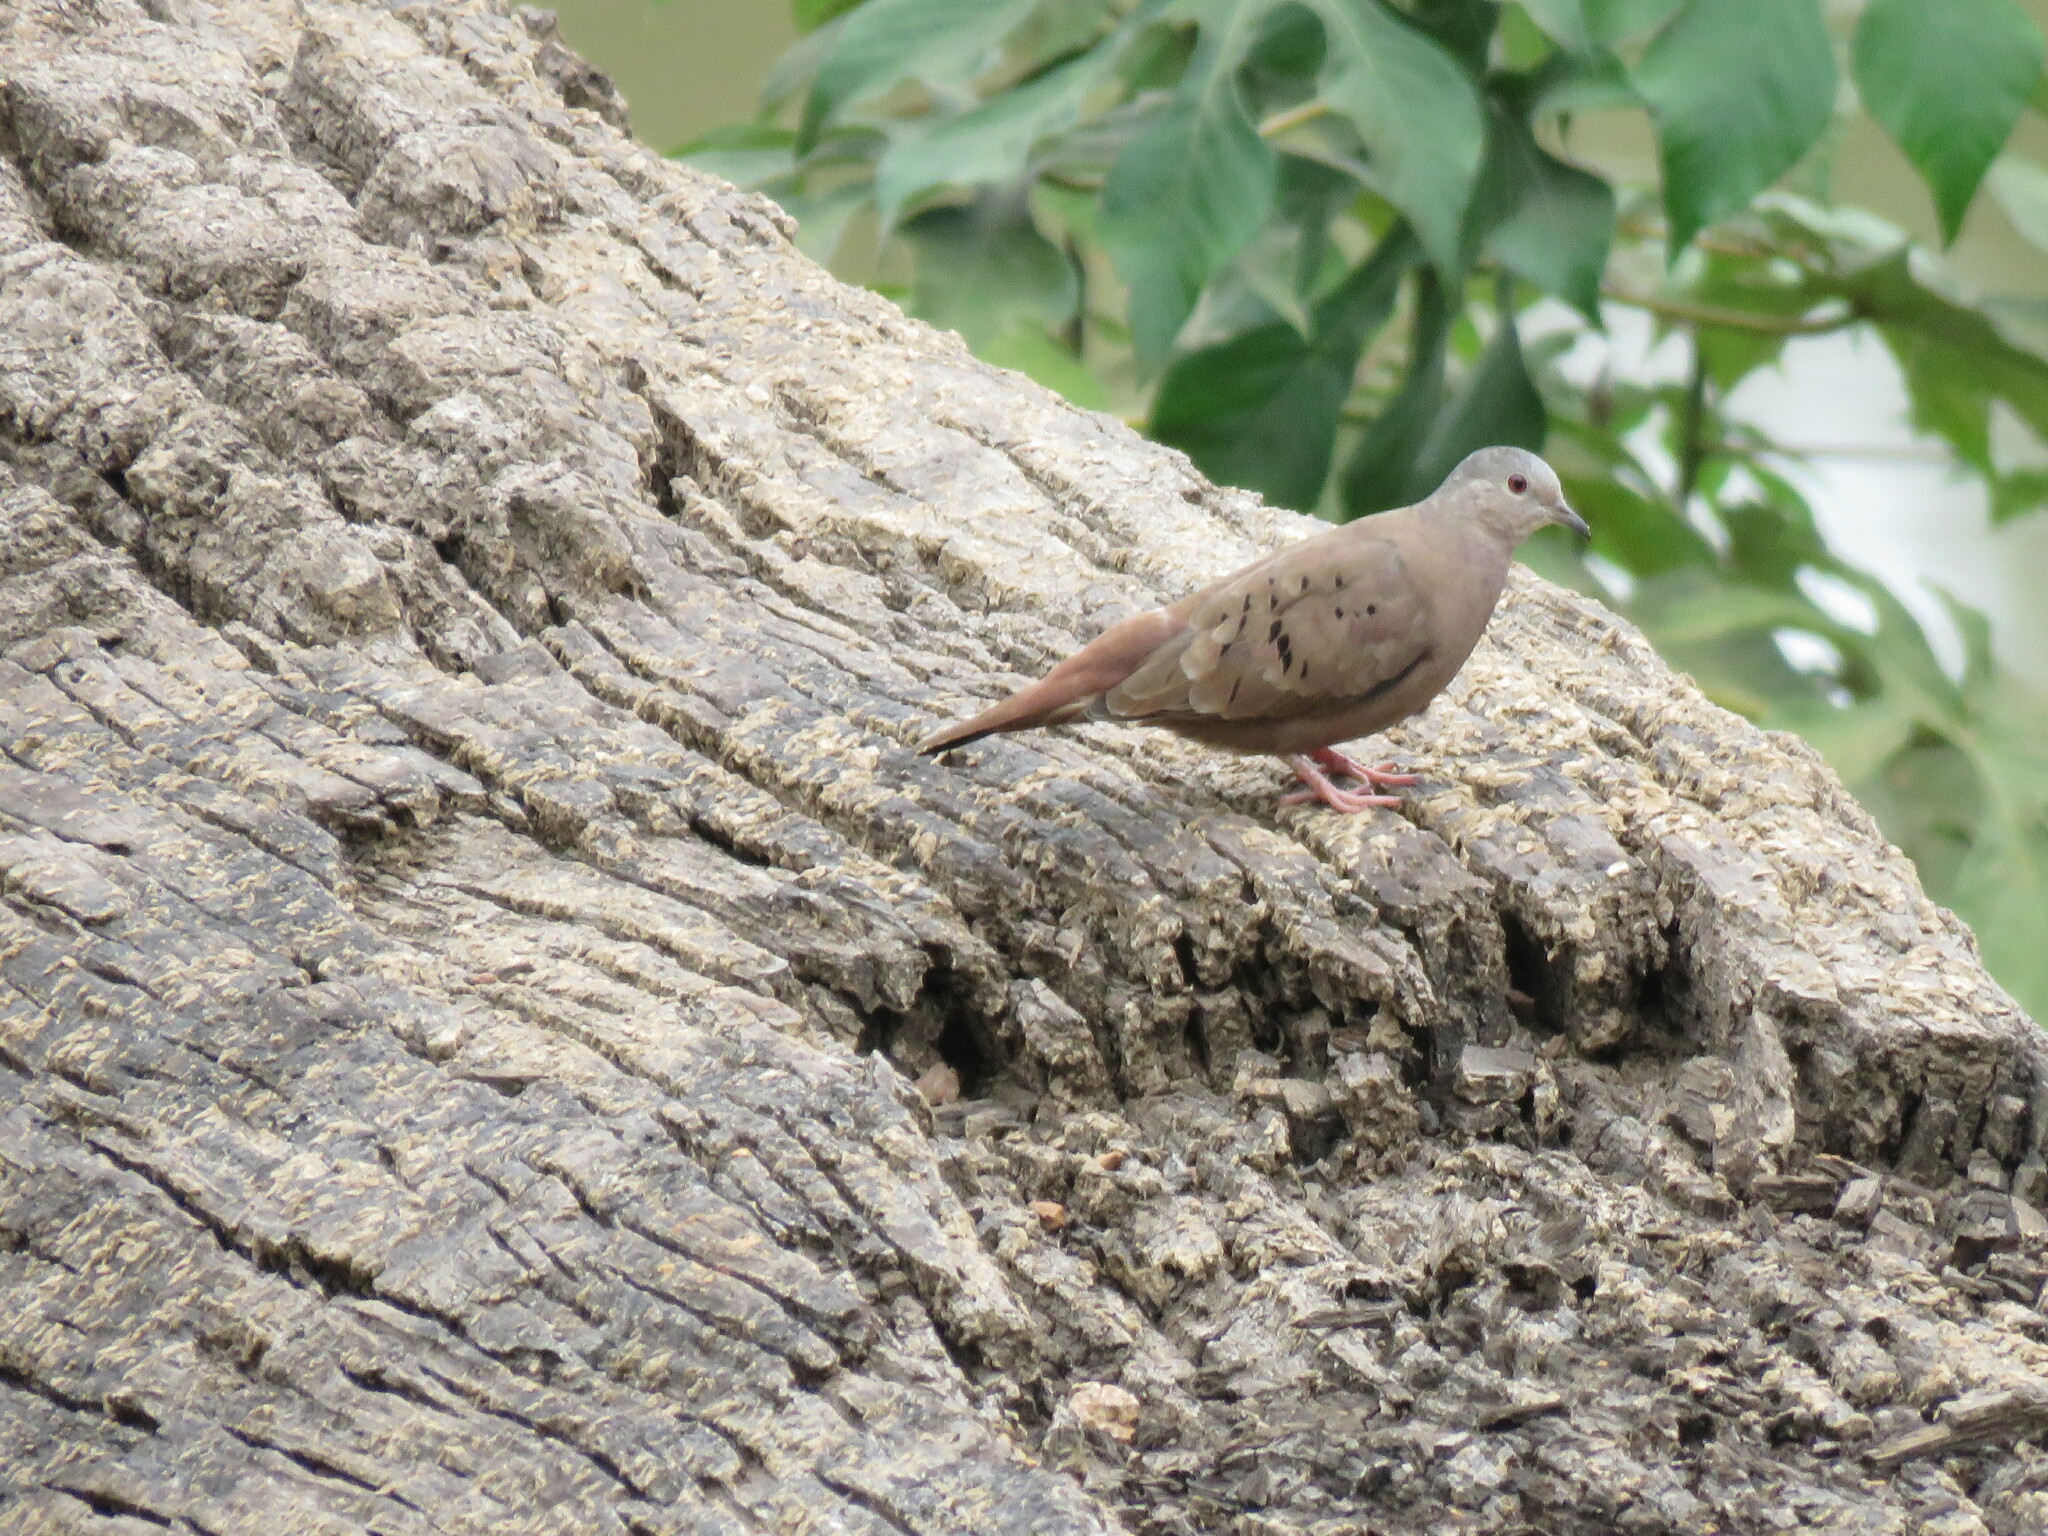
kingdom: Animalia
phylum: Chordata
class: Aves
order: Columbiformes
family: Columbidae
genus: Columbina
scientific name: Columbina talpacoti
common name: Ruddy ground dove
